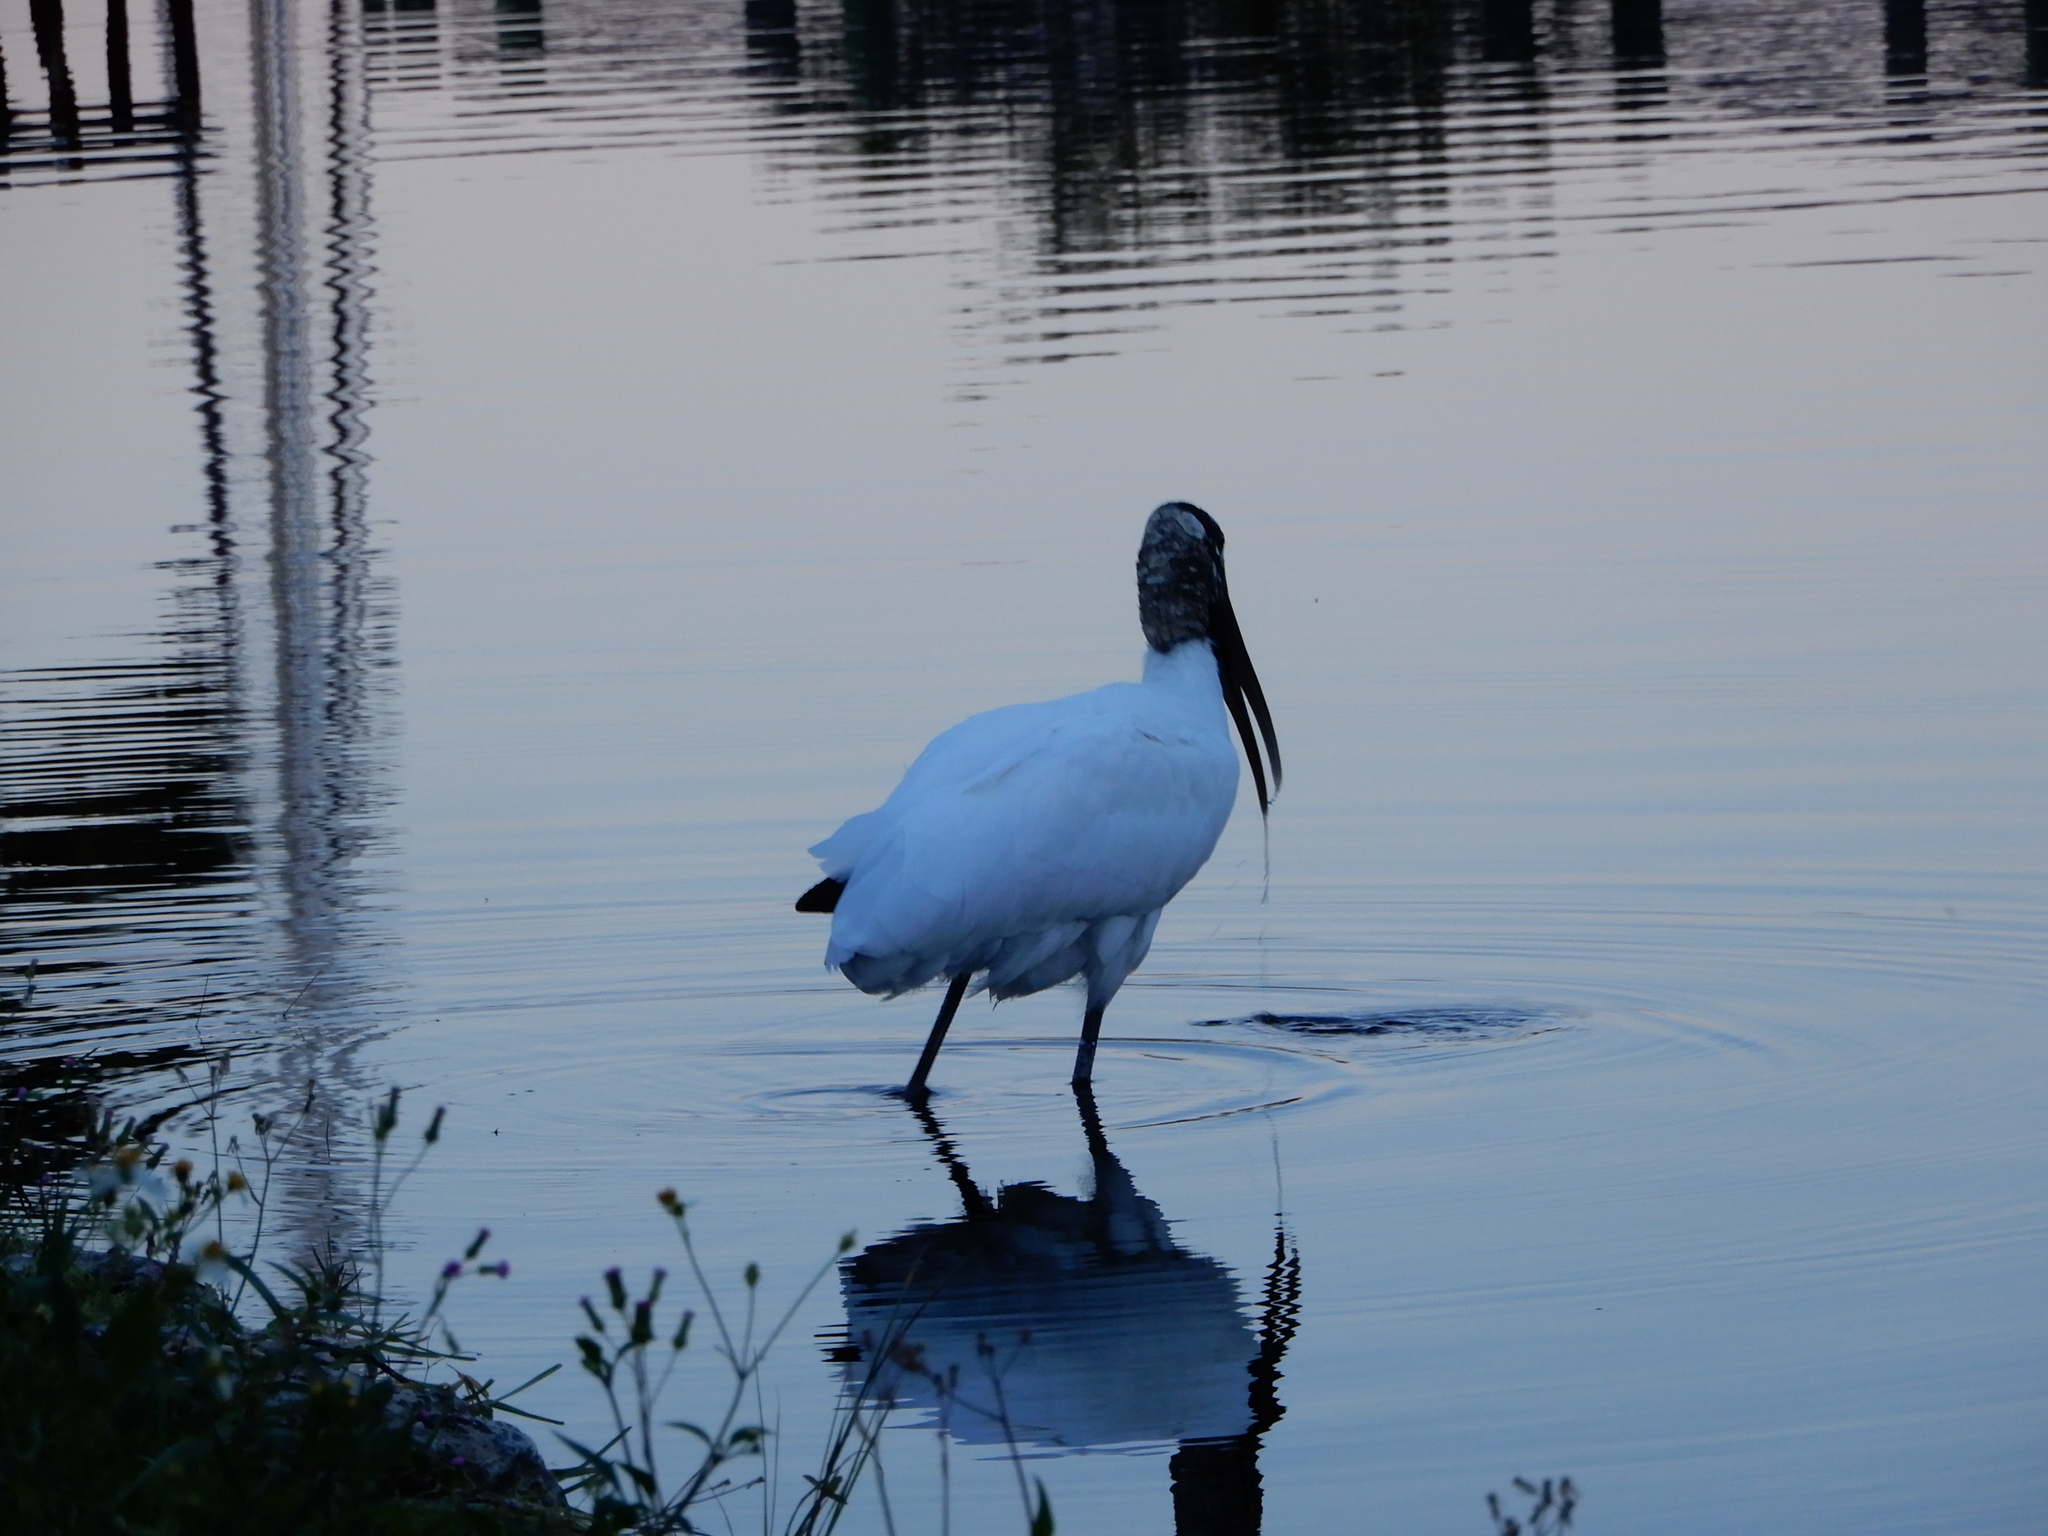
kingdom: Animalia
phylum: Chordata
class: Aves
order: Ciconiiformes
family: Ciconiidae
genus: Mycteria
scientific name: Mycteria americana
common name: Wood stork
